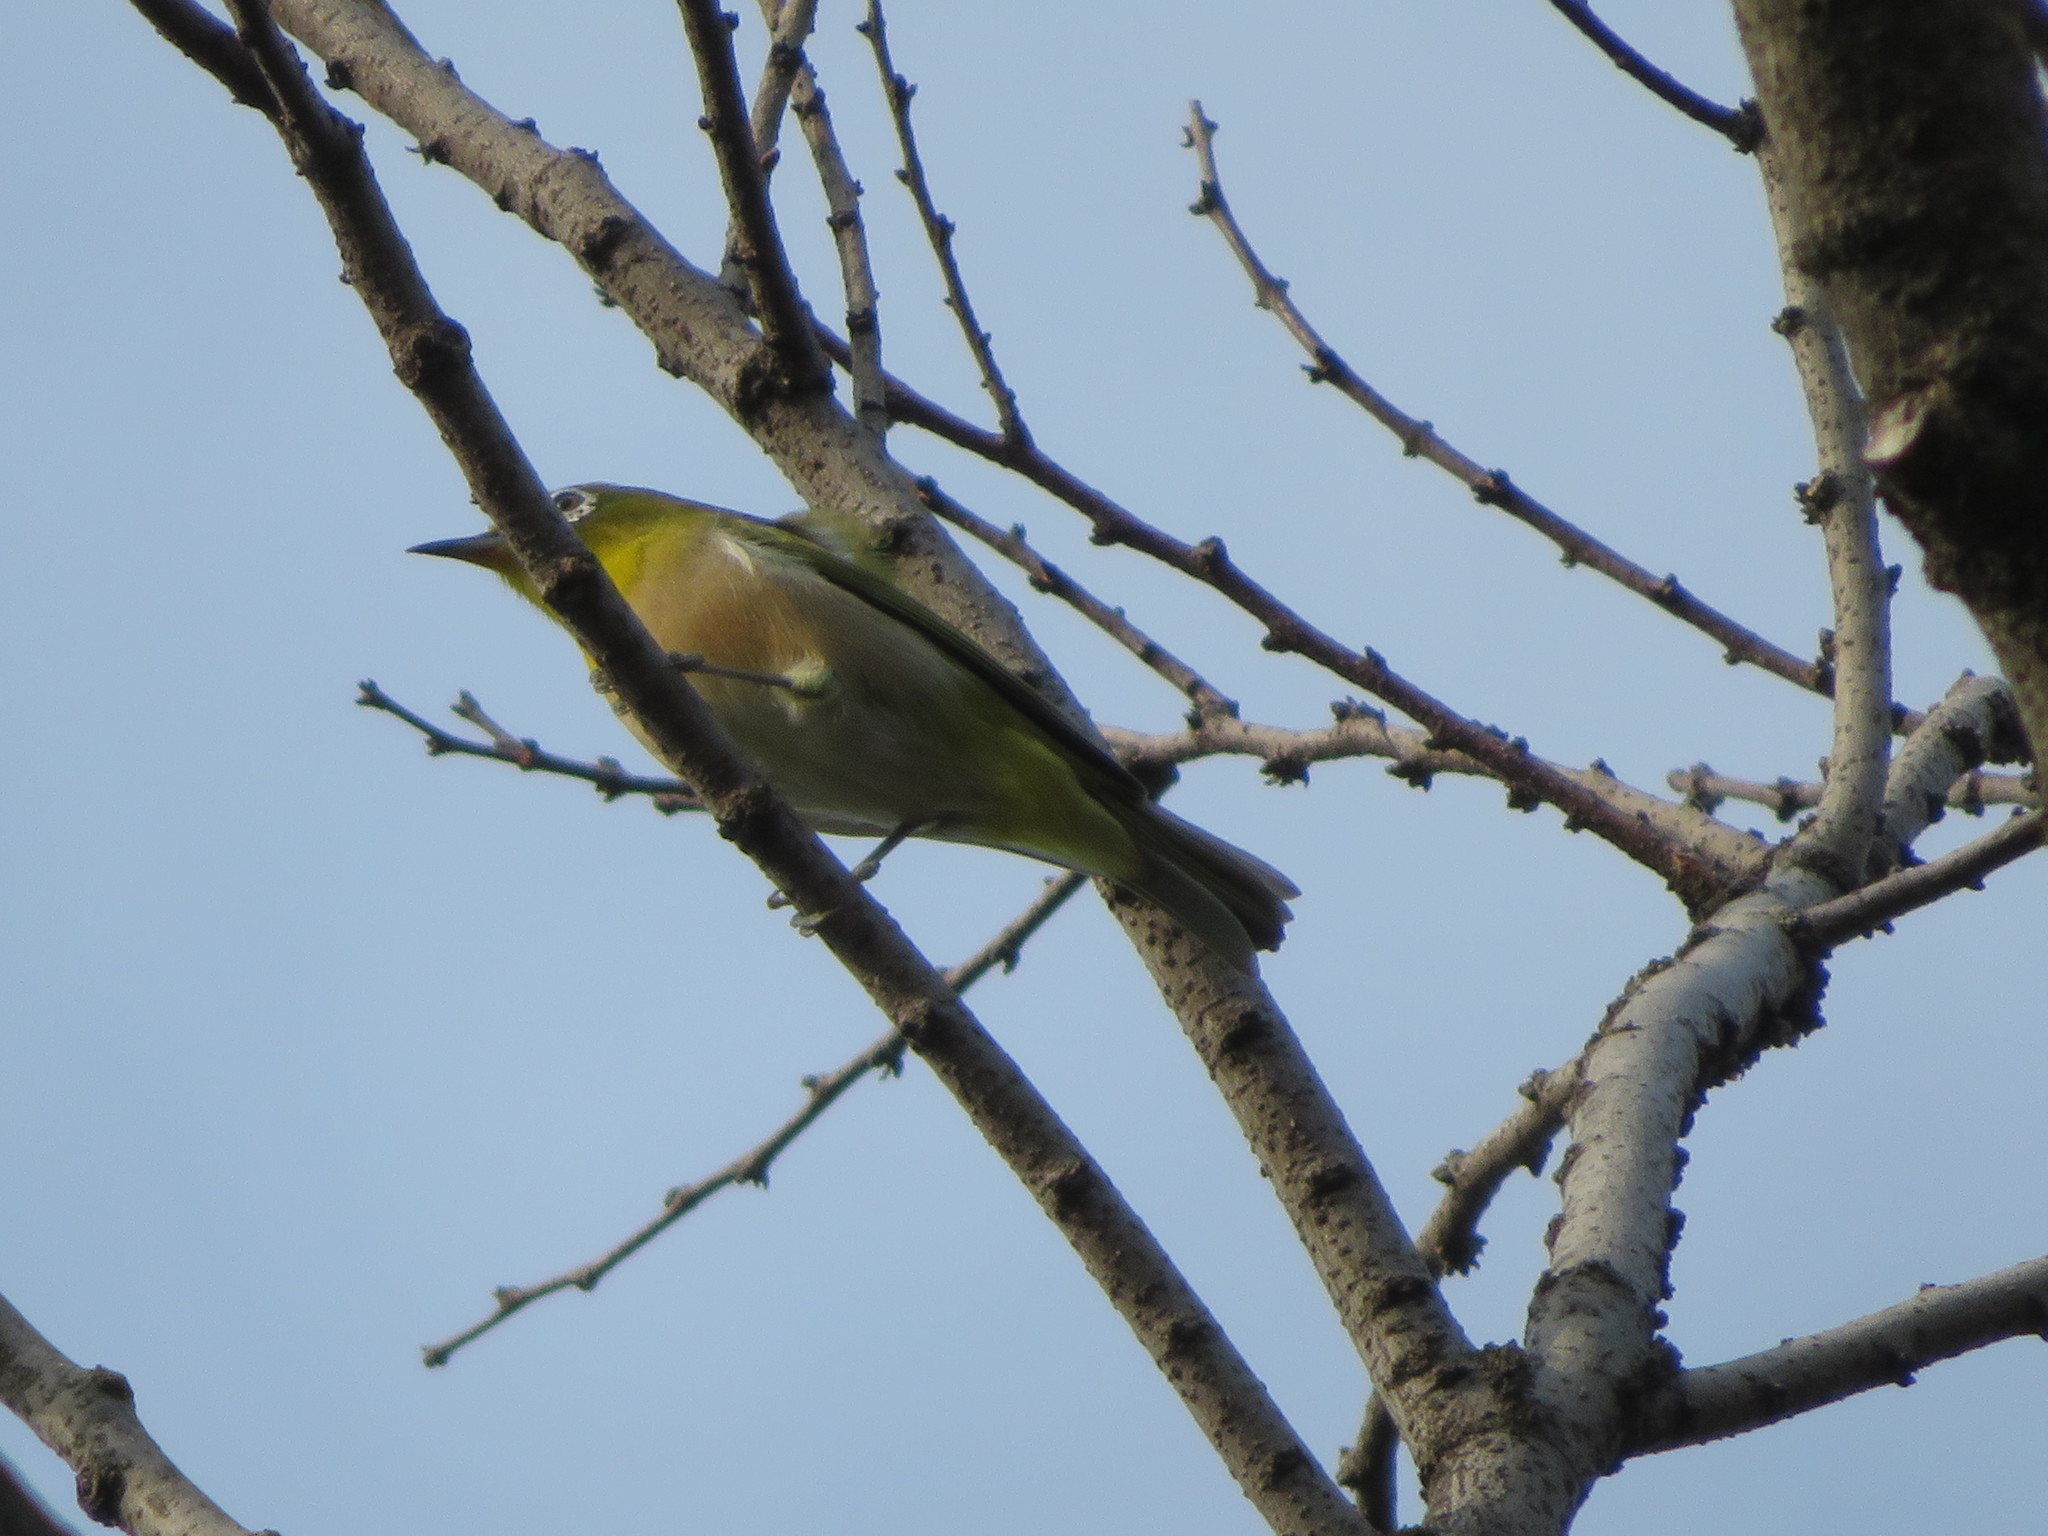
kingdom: Animalia
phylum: Chordata
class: Aves
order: Passeriformes
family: Zosteropidae
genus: Zosterops
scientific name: Zosterops japonicus
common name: Japanese white-eye
